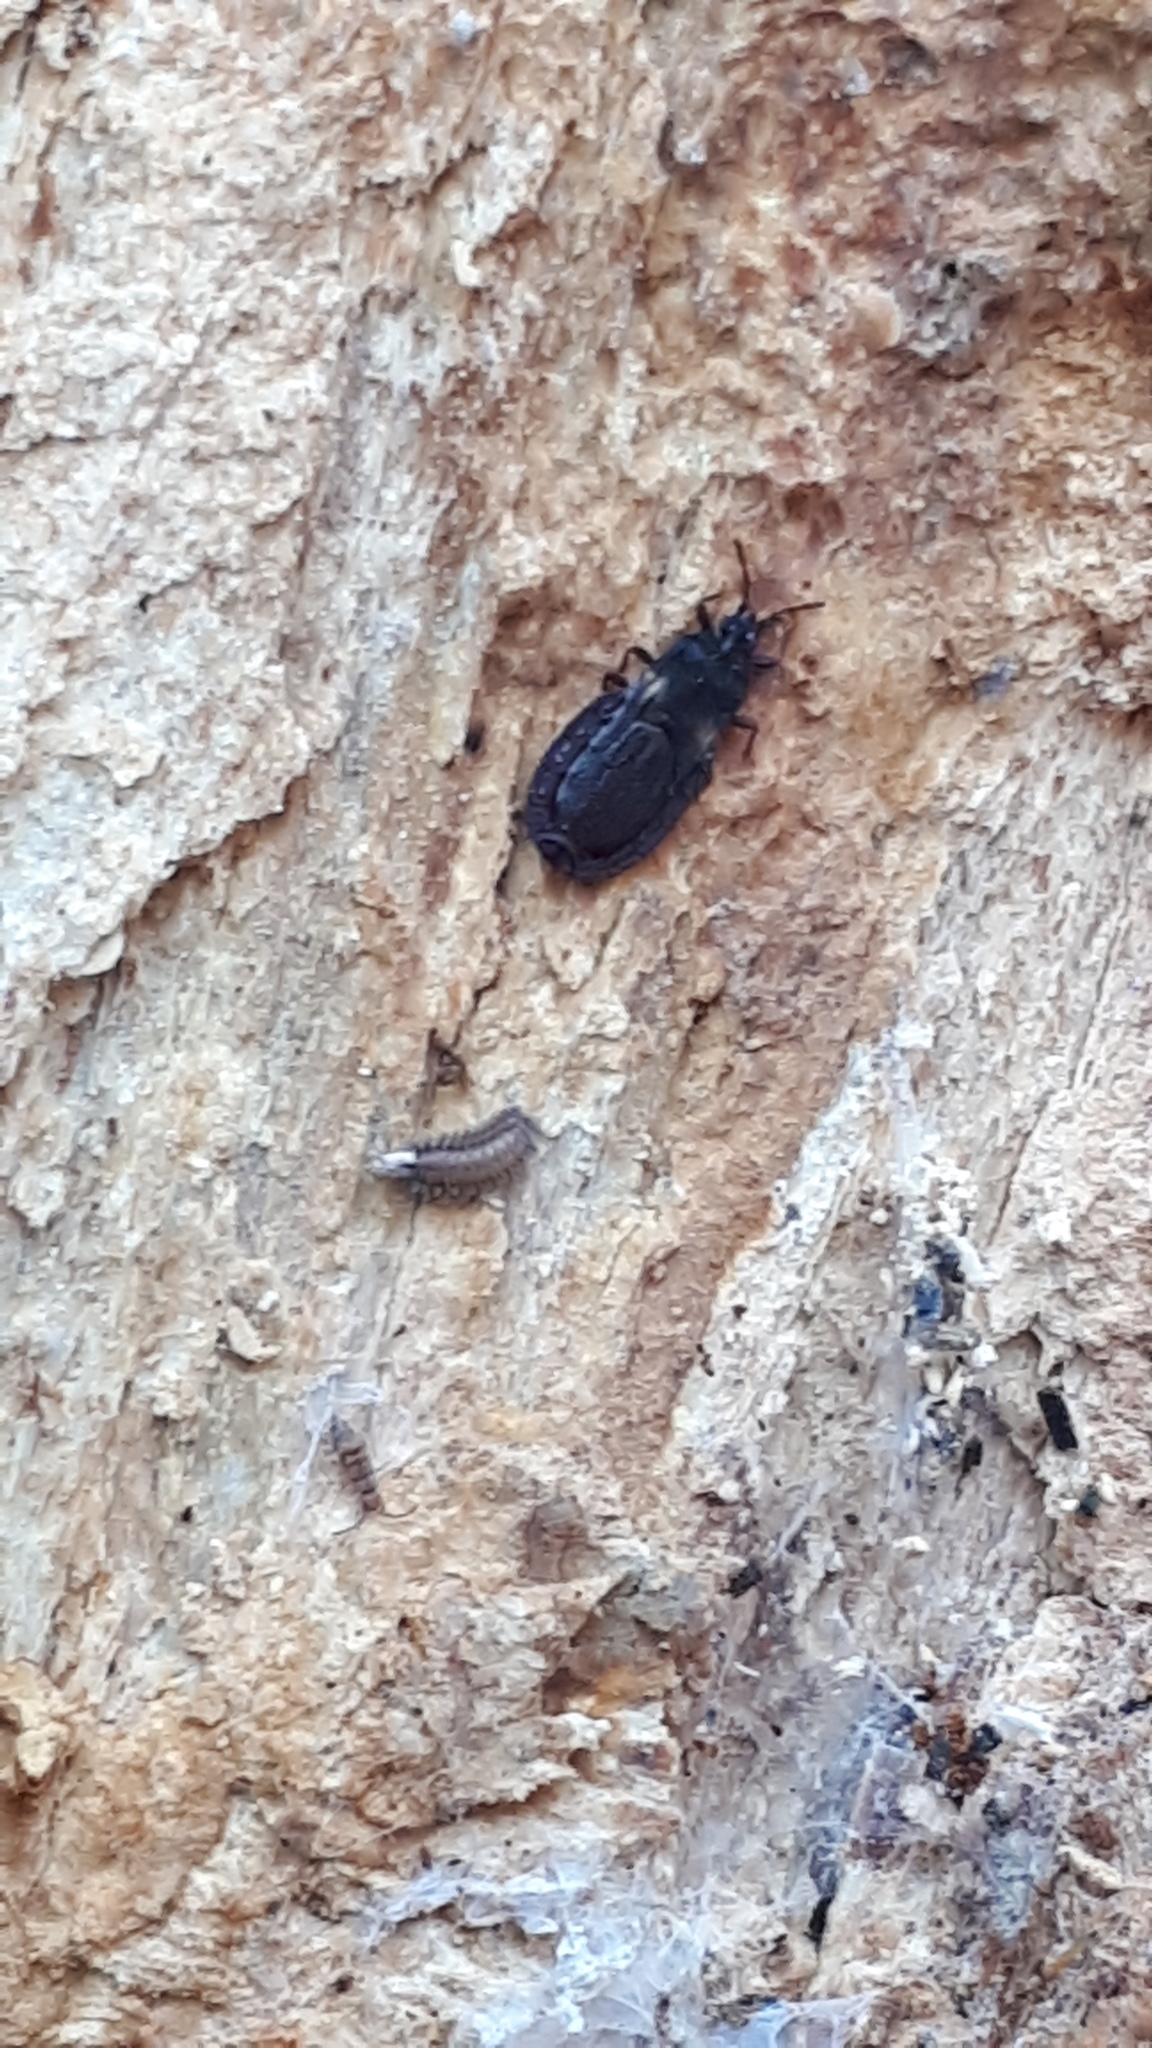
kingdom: Animalia
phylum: Arthropoda
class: Diplopoda
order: Polyxenida
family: Polyxenidae
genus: Polyxenus
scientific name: Polyxenus lagurus
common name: Bristly millipede
